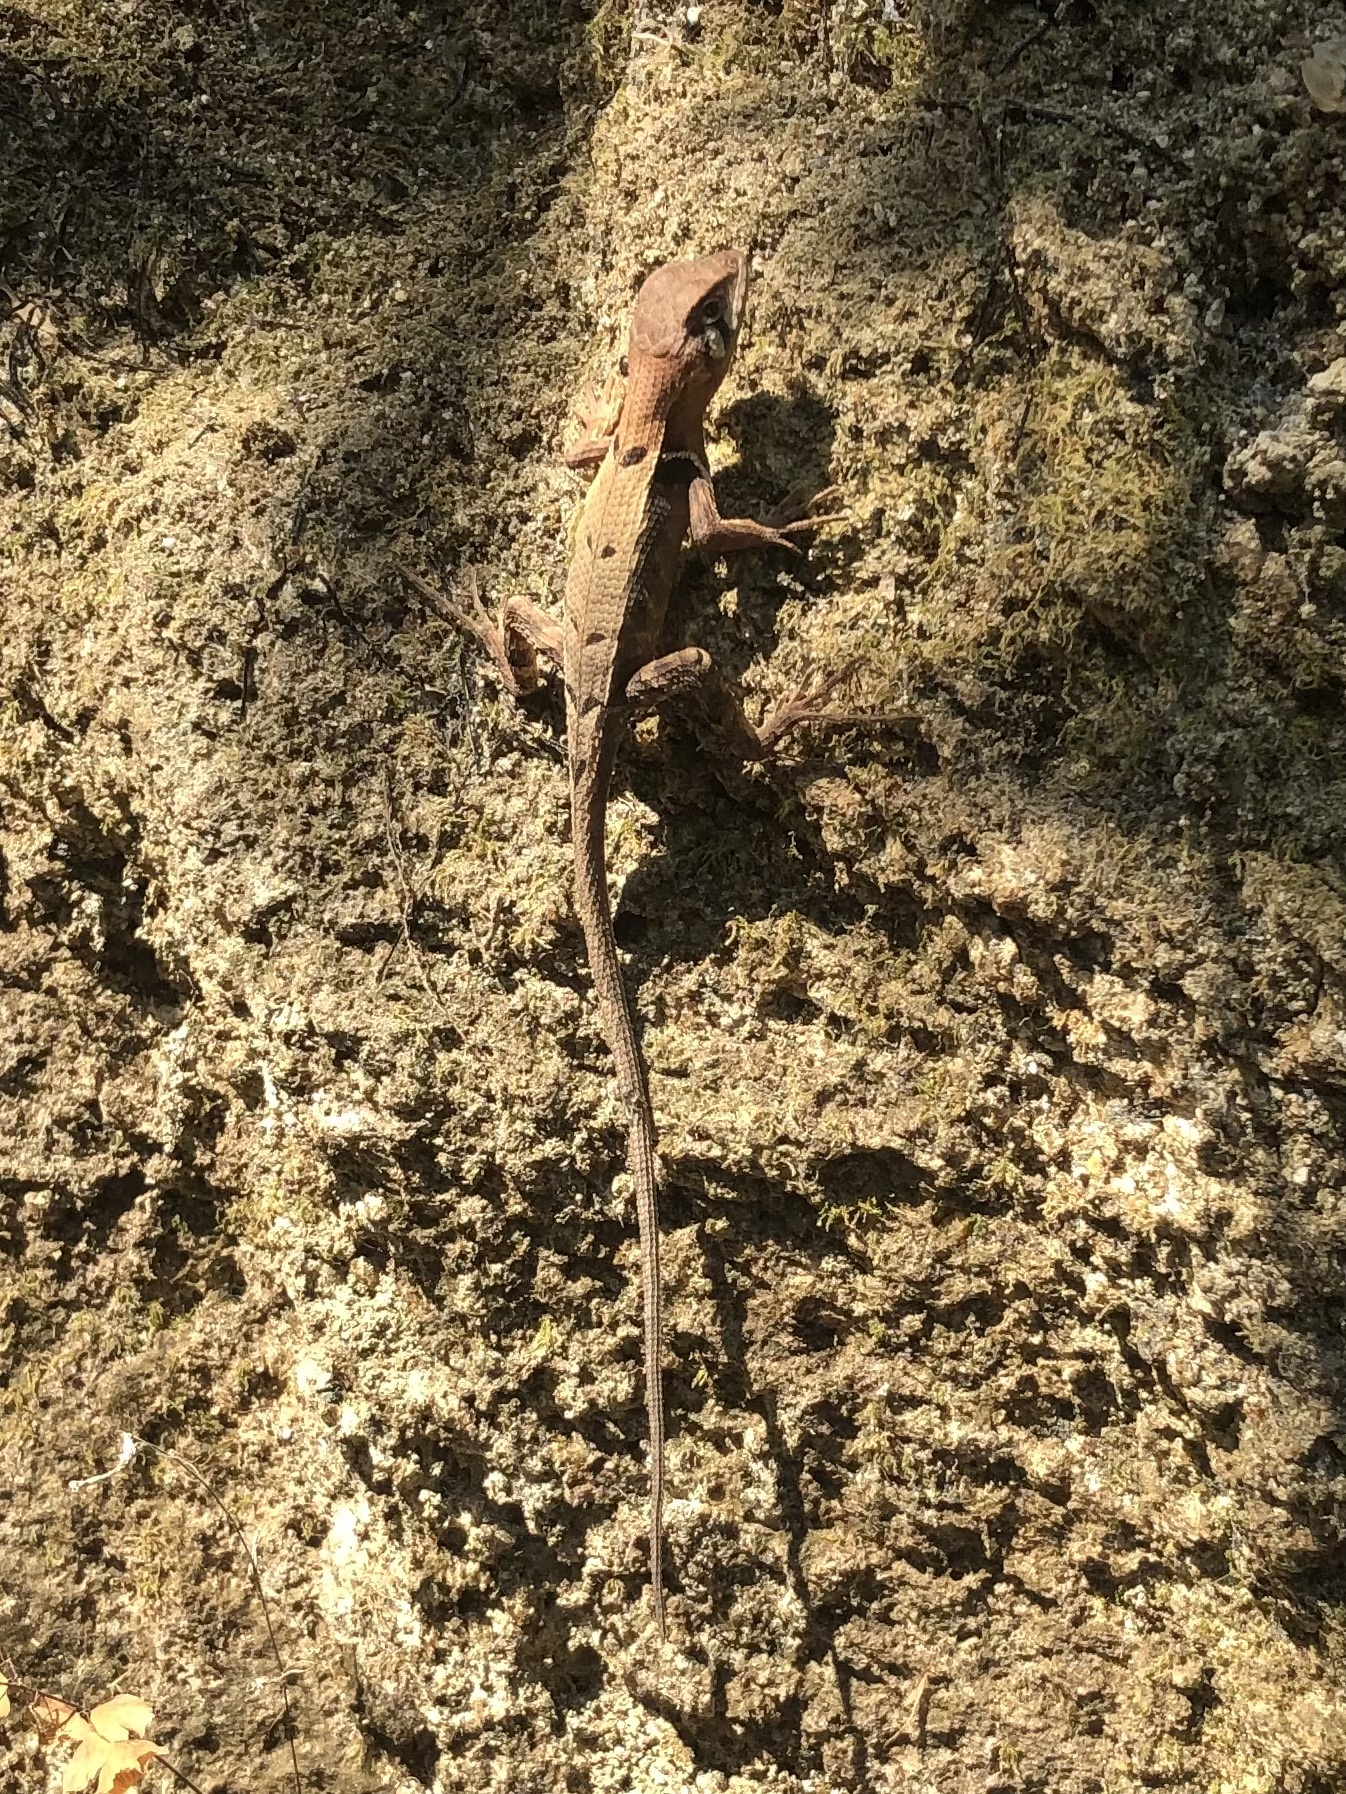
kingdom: Animalia
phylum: Chordata
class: Squamata
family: Tropiduridae
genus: Stenocercus
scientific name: Stenocercus erythrogaster
